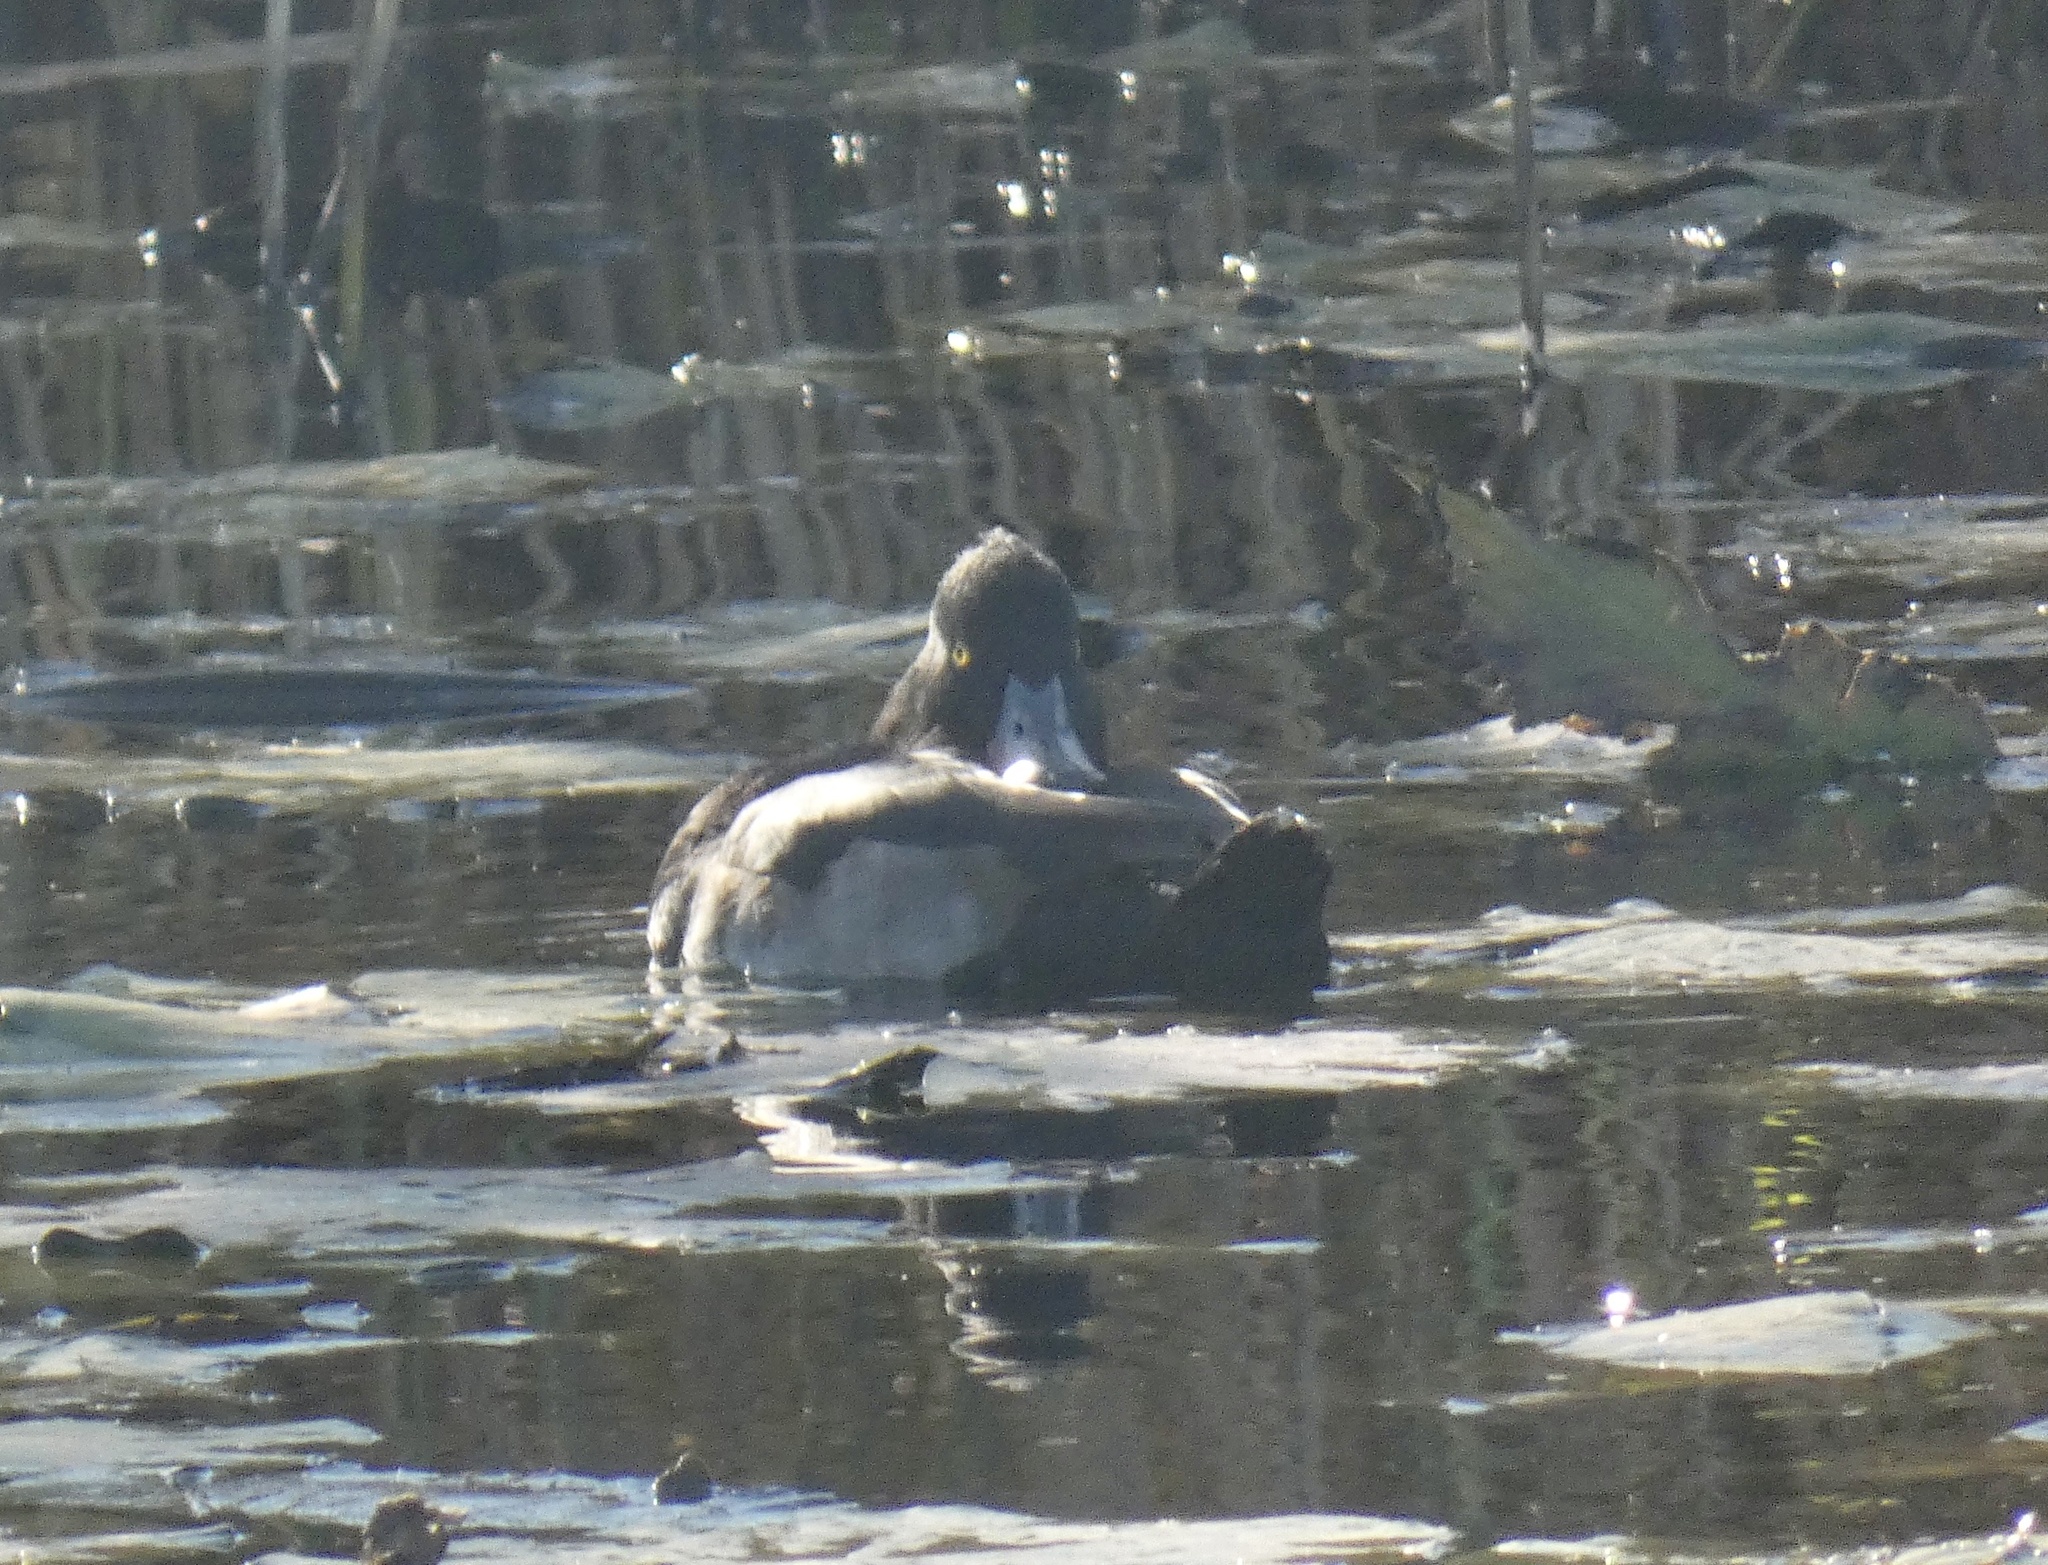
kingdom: Animalia
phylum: Chordata
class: Aves
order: Anseriformes
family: Anatidae
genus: Aythya
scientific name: Aythya fuligula
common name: Tufted duck
